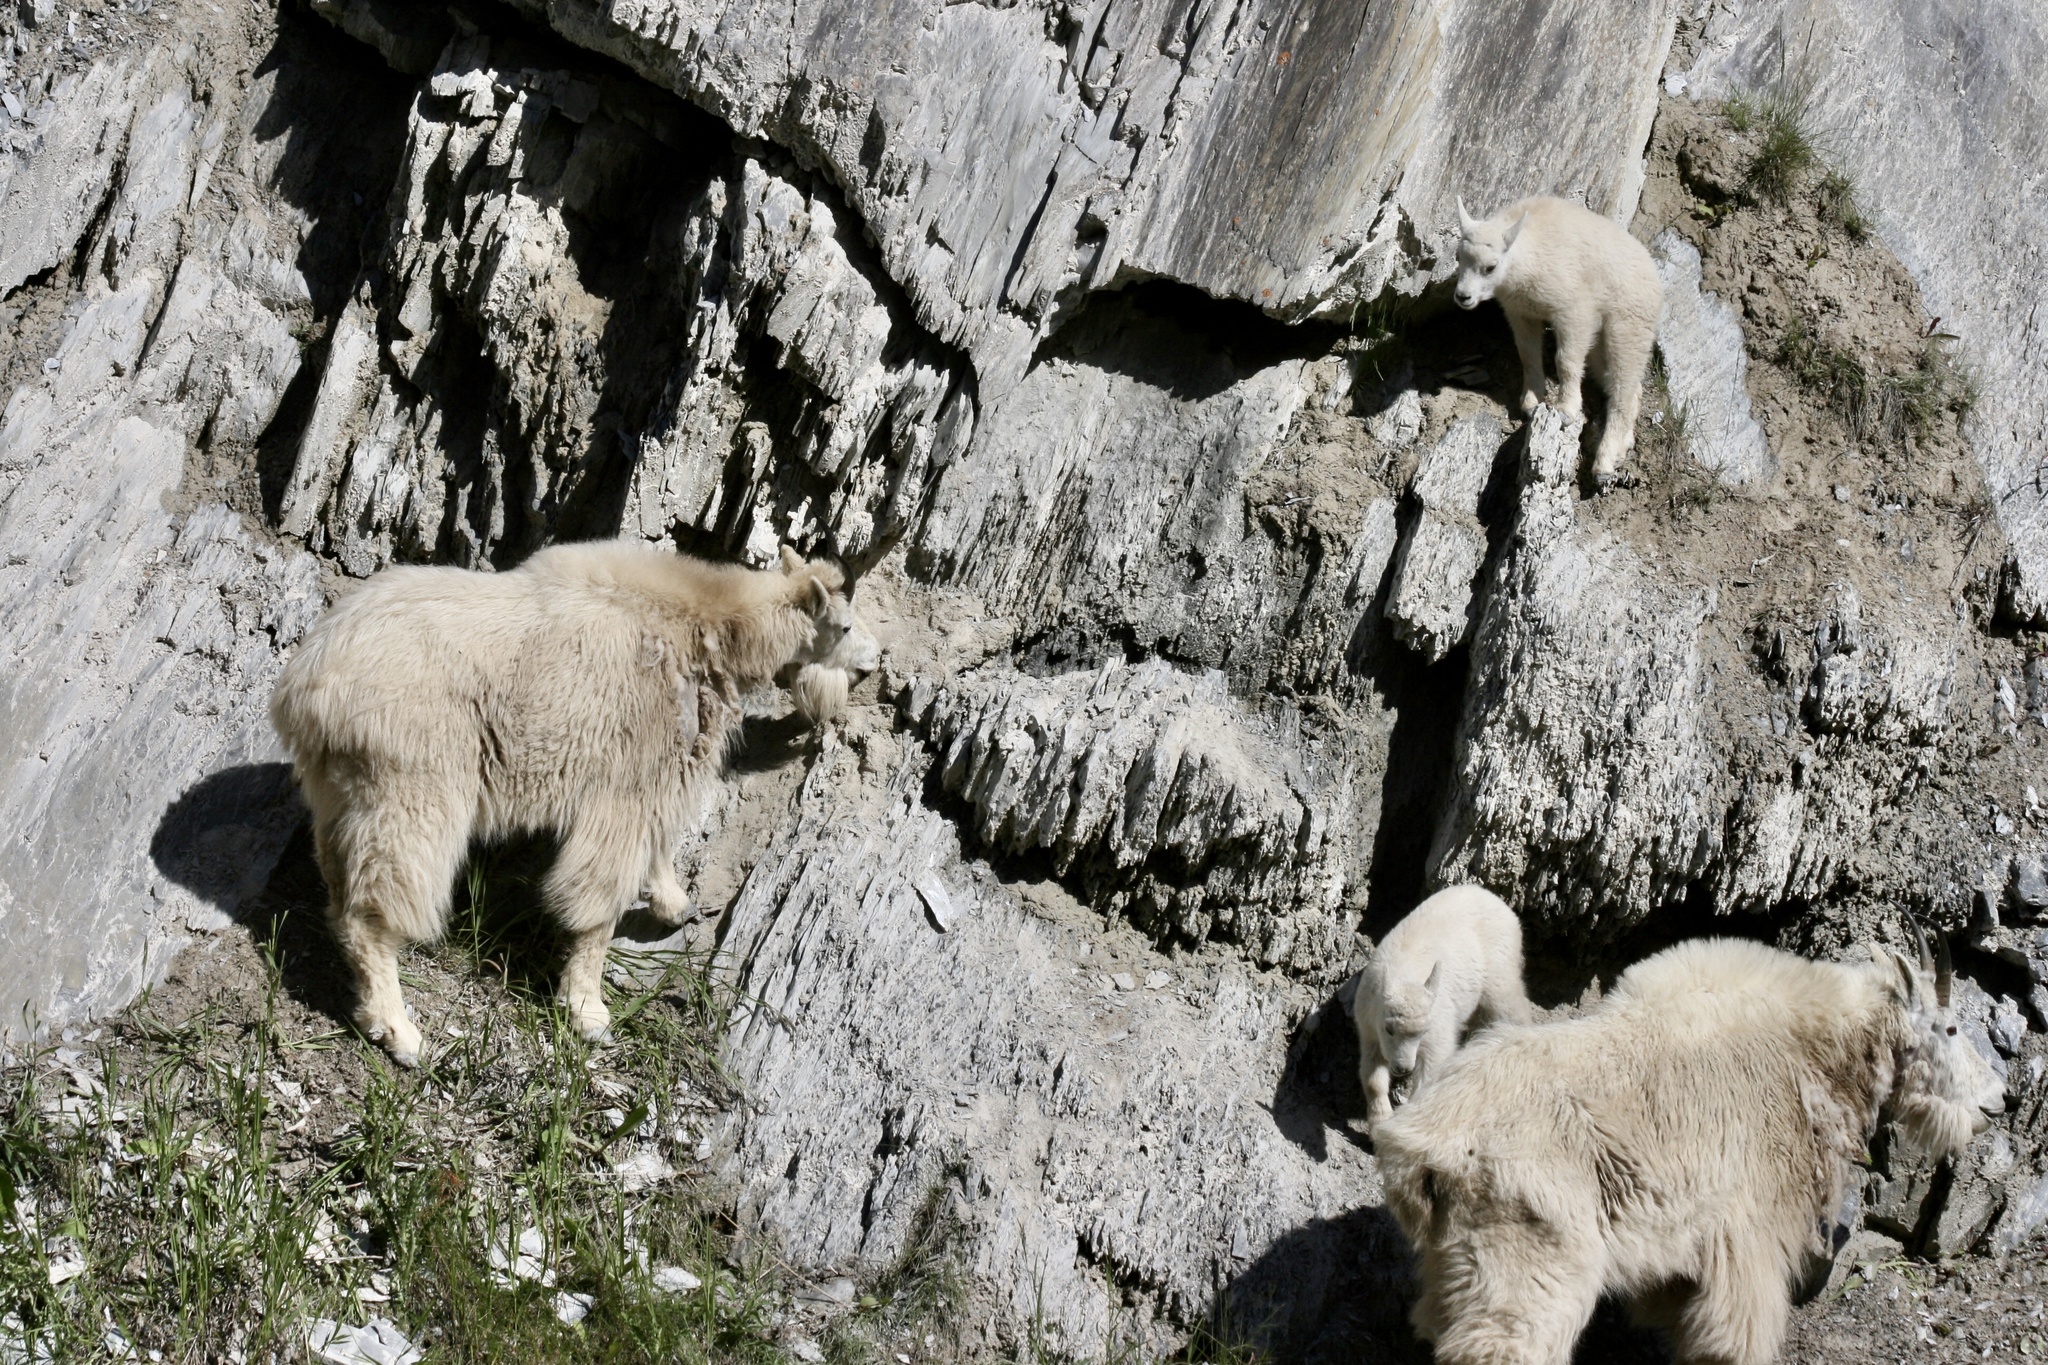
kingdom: Animalia
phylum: Chordata
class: Mammalia
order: Artiodactyla
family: Bovidae
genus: Oreamnos
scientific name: Oreamnos americanus
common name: Mountain goat
